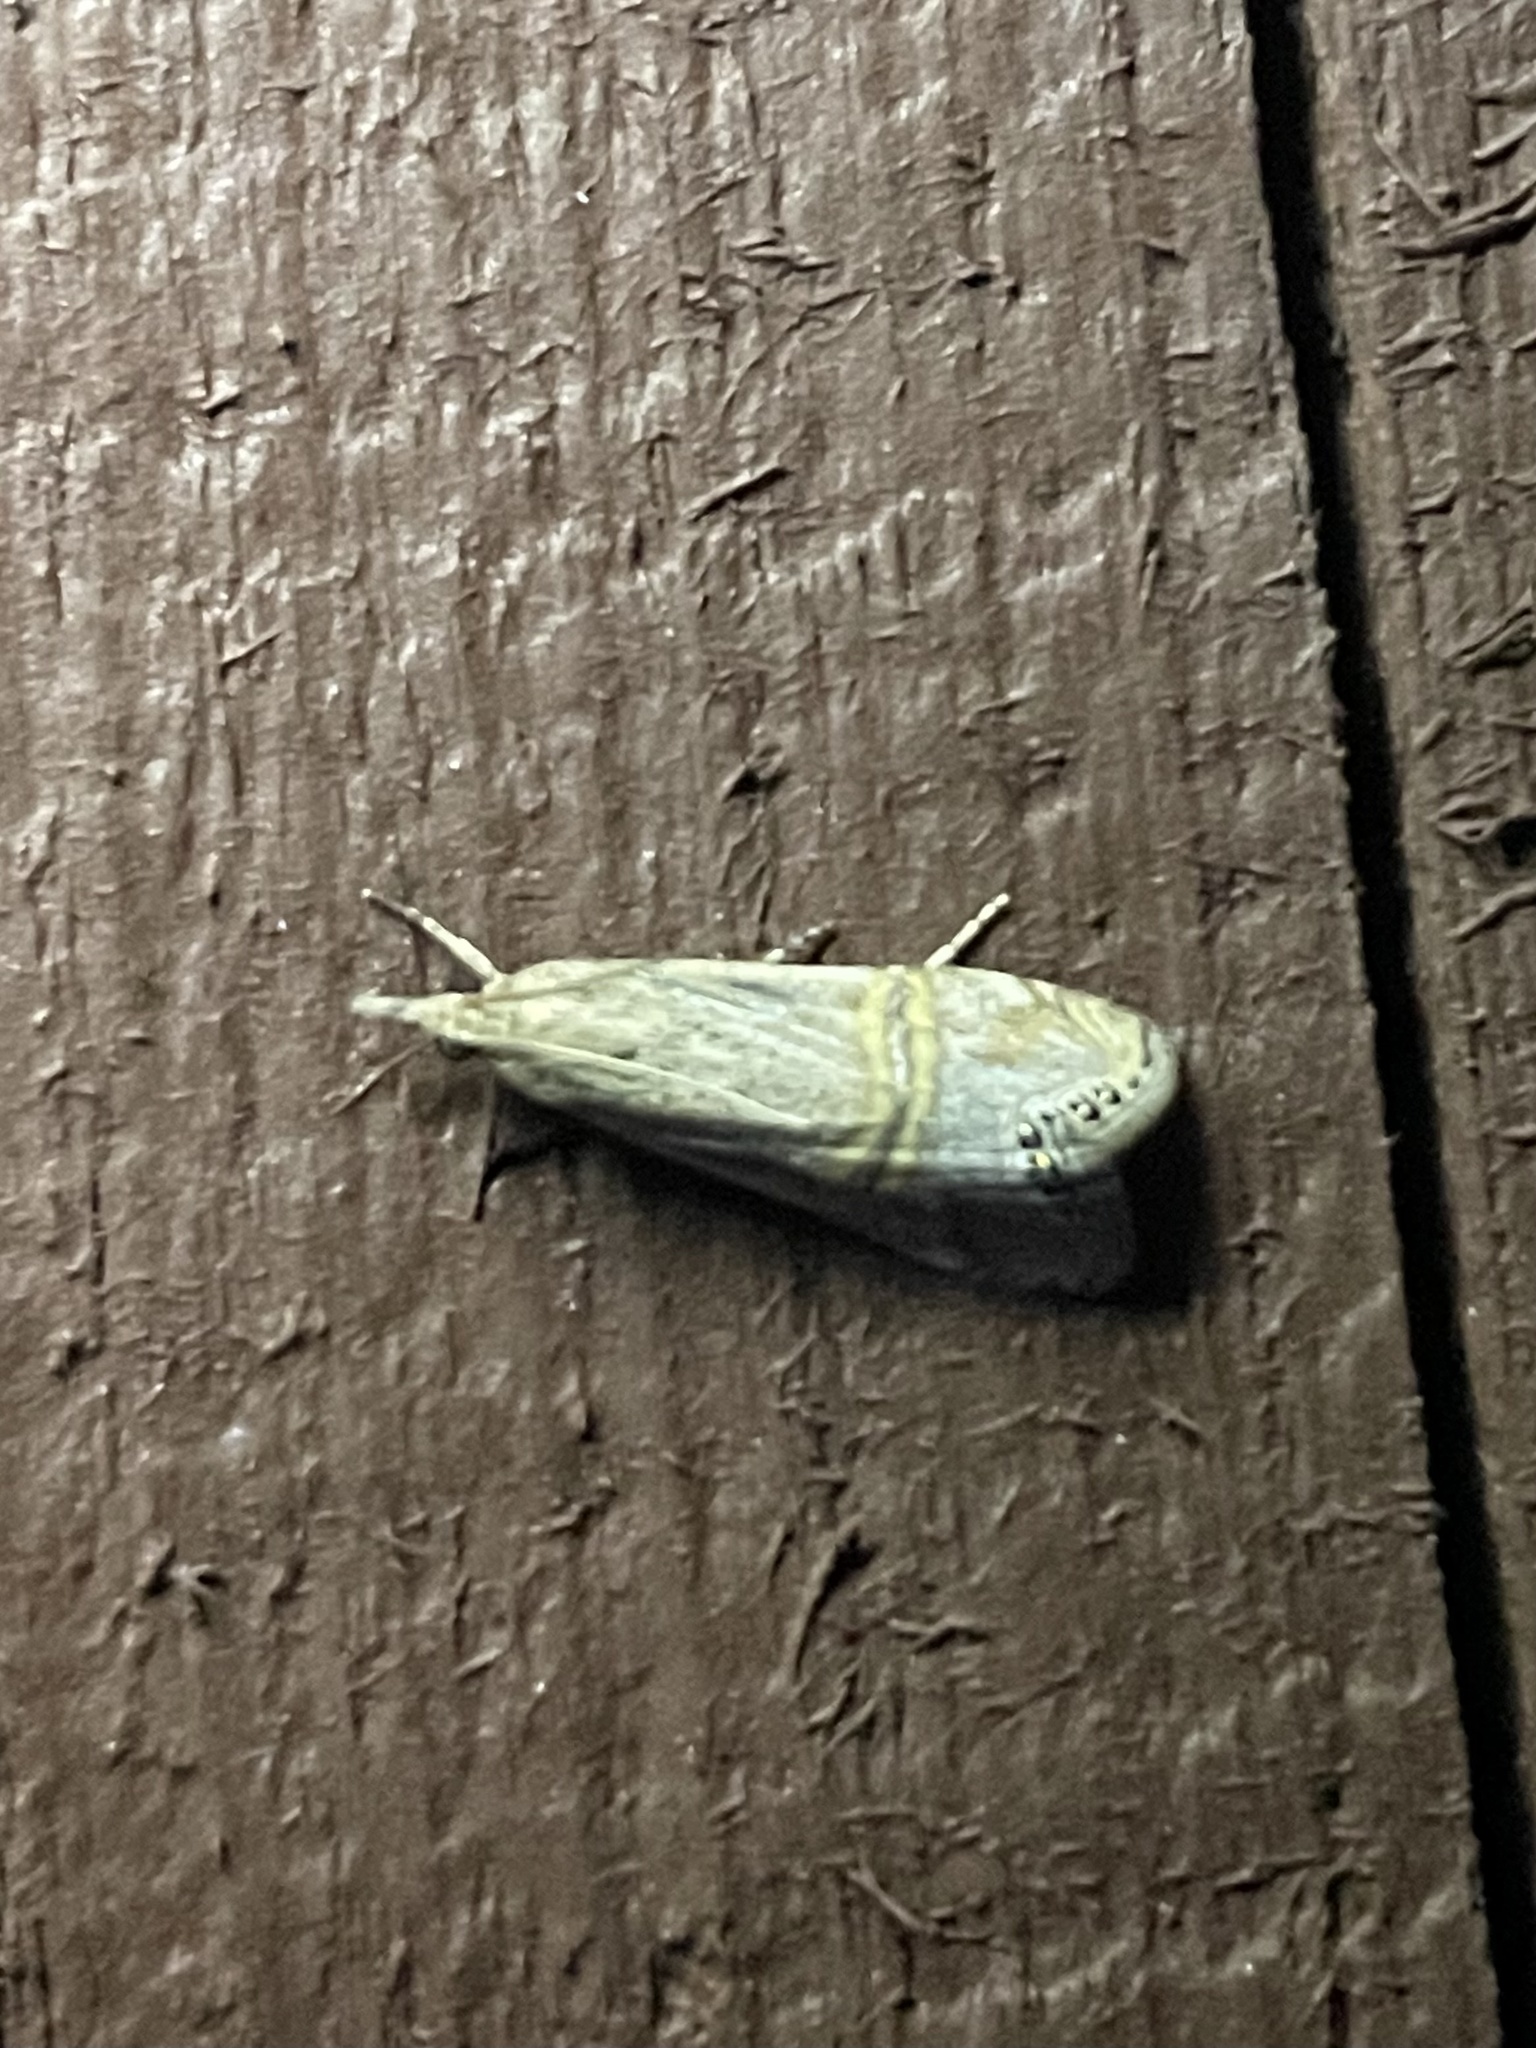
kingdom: Animalia
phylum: Arthropoda
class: Insecta
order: Lepidoptera
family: Crambidae
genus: Euchromius
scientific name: Euchromius ocellea
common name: Necklace veneer moth
